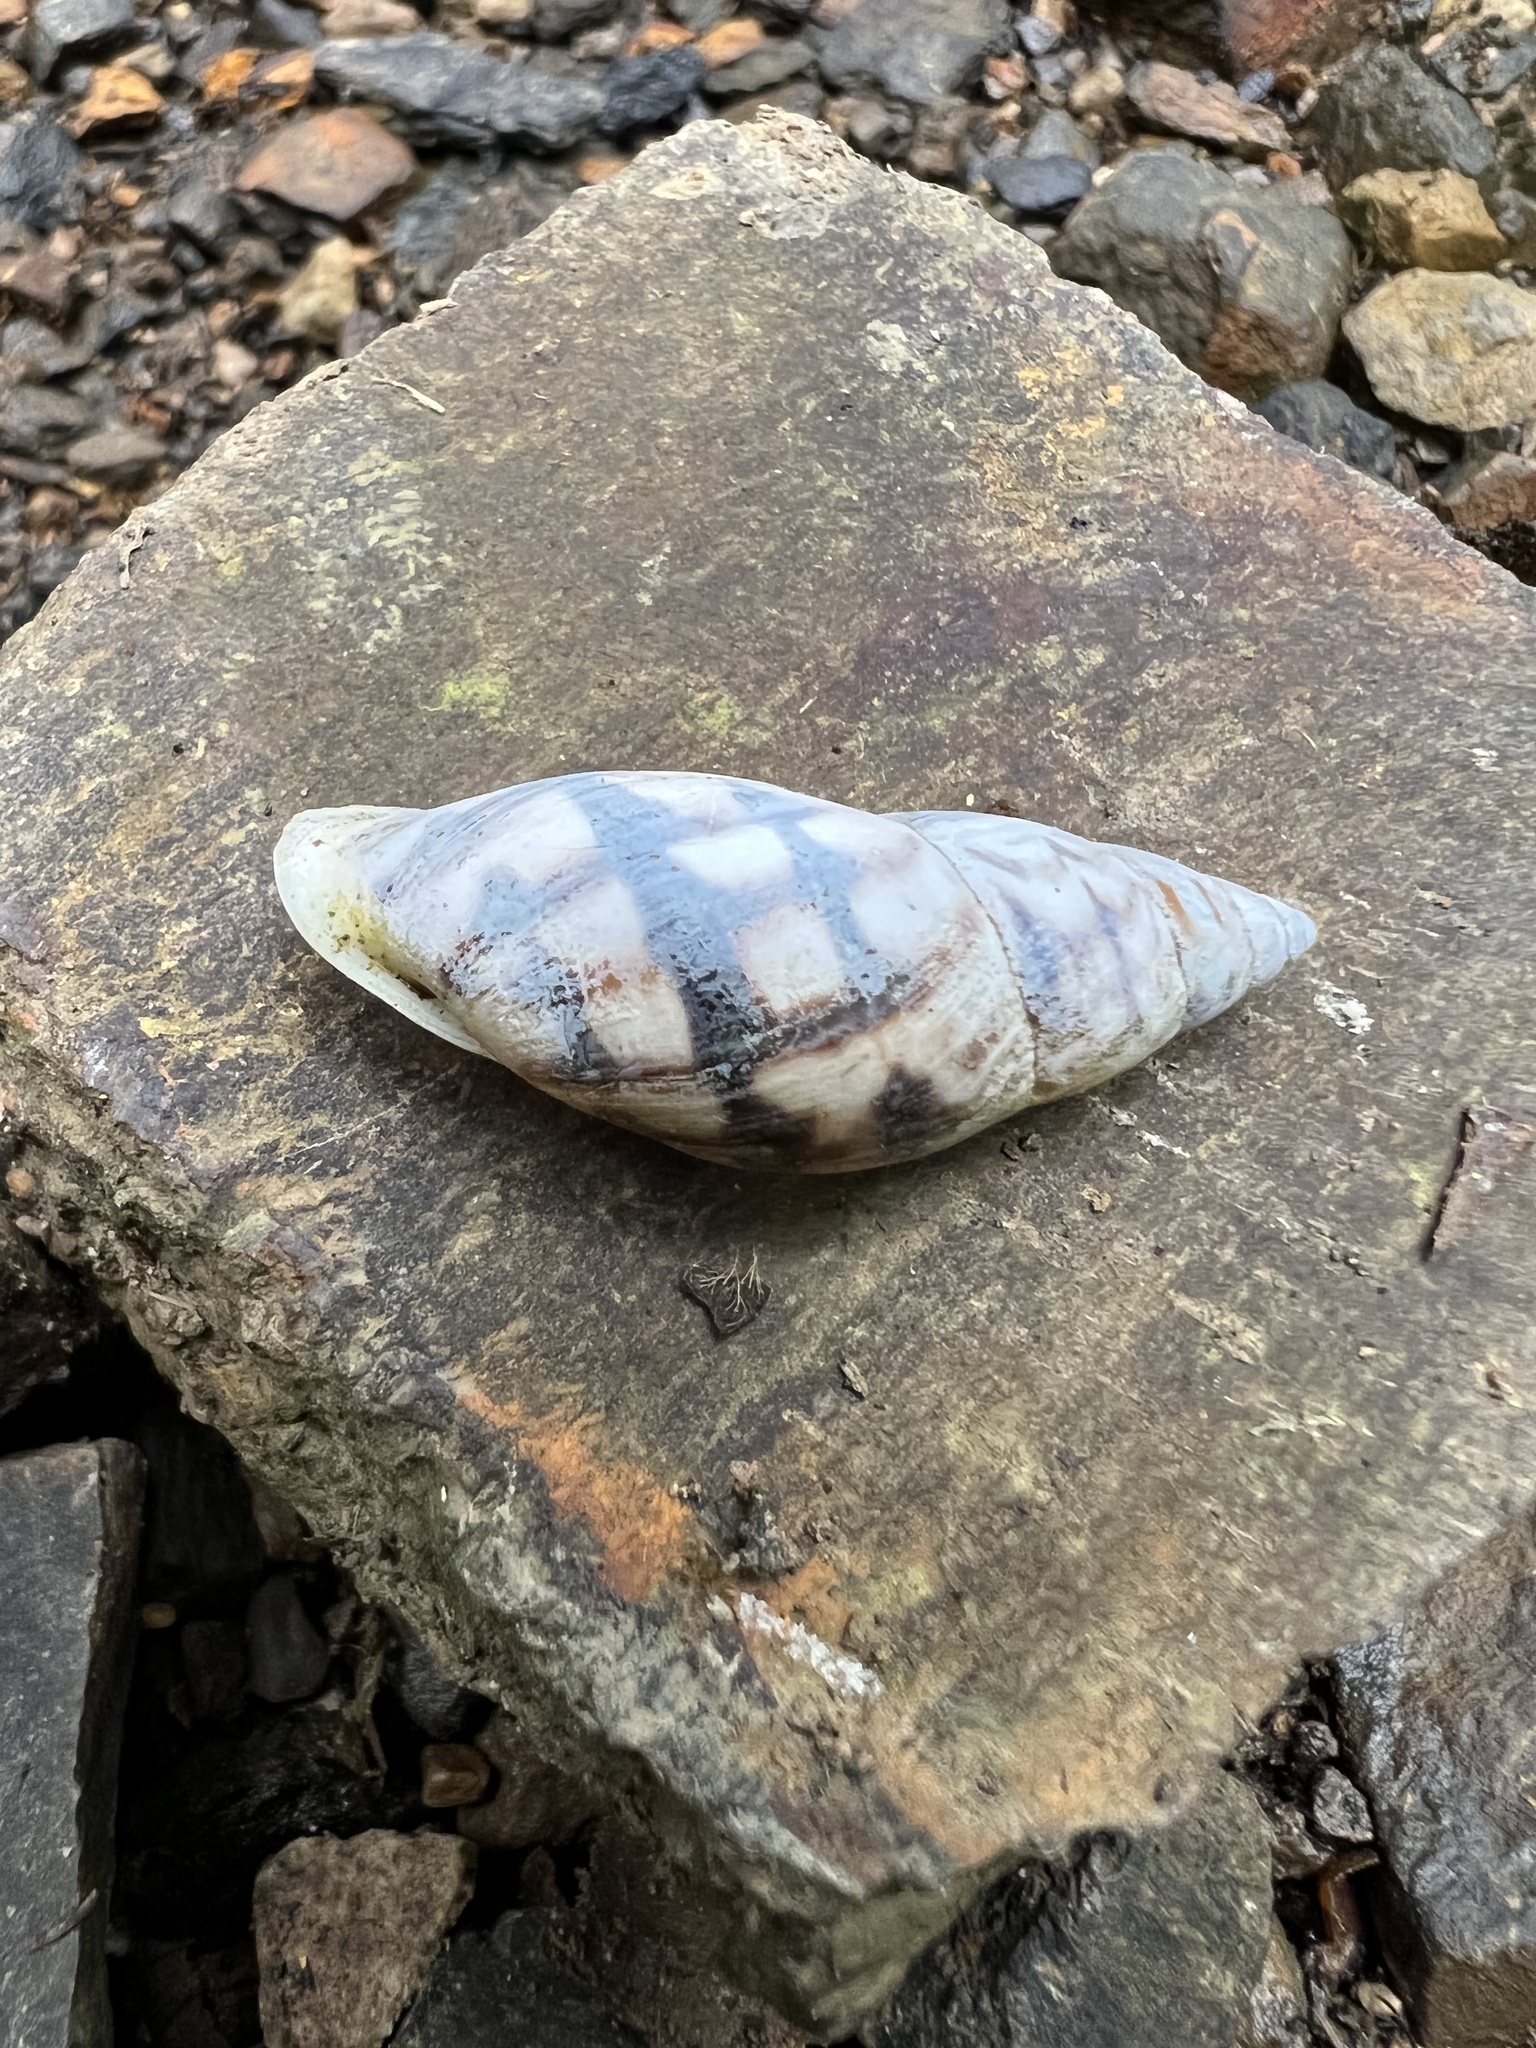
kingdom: Animalia
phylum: Mollusca
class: Gastropoda
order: Stylommatophora
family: Bulimulidae
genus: Drymaeus
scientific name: Drymaeus smithii
